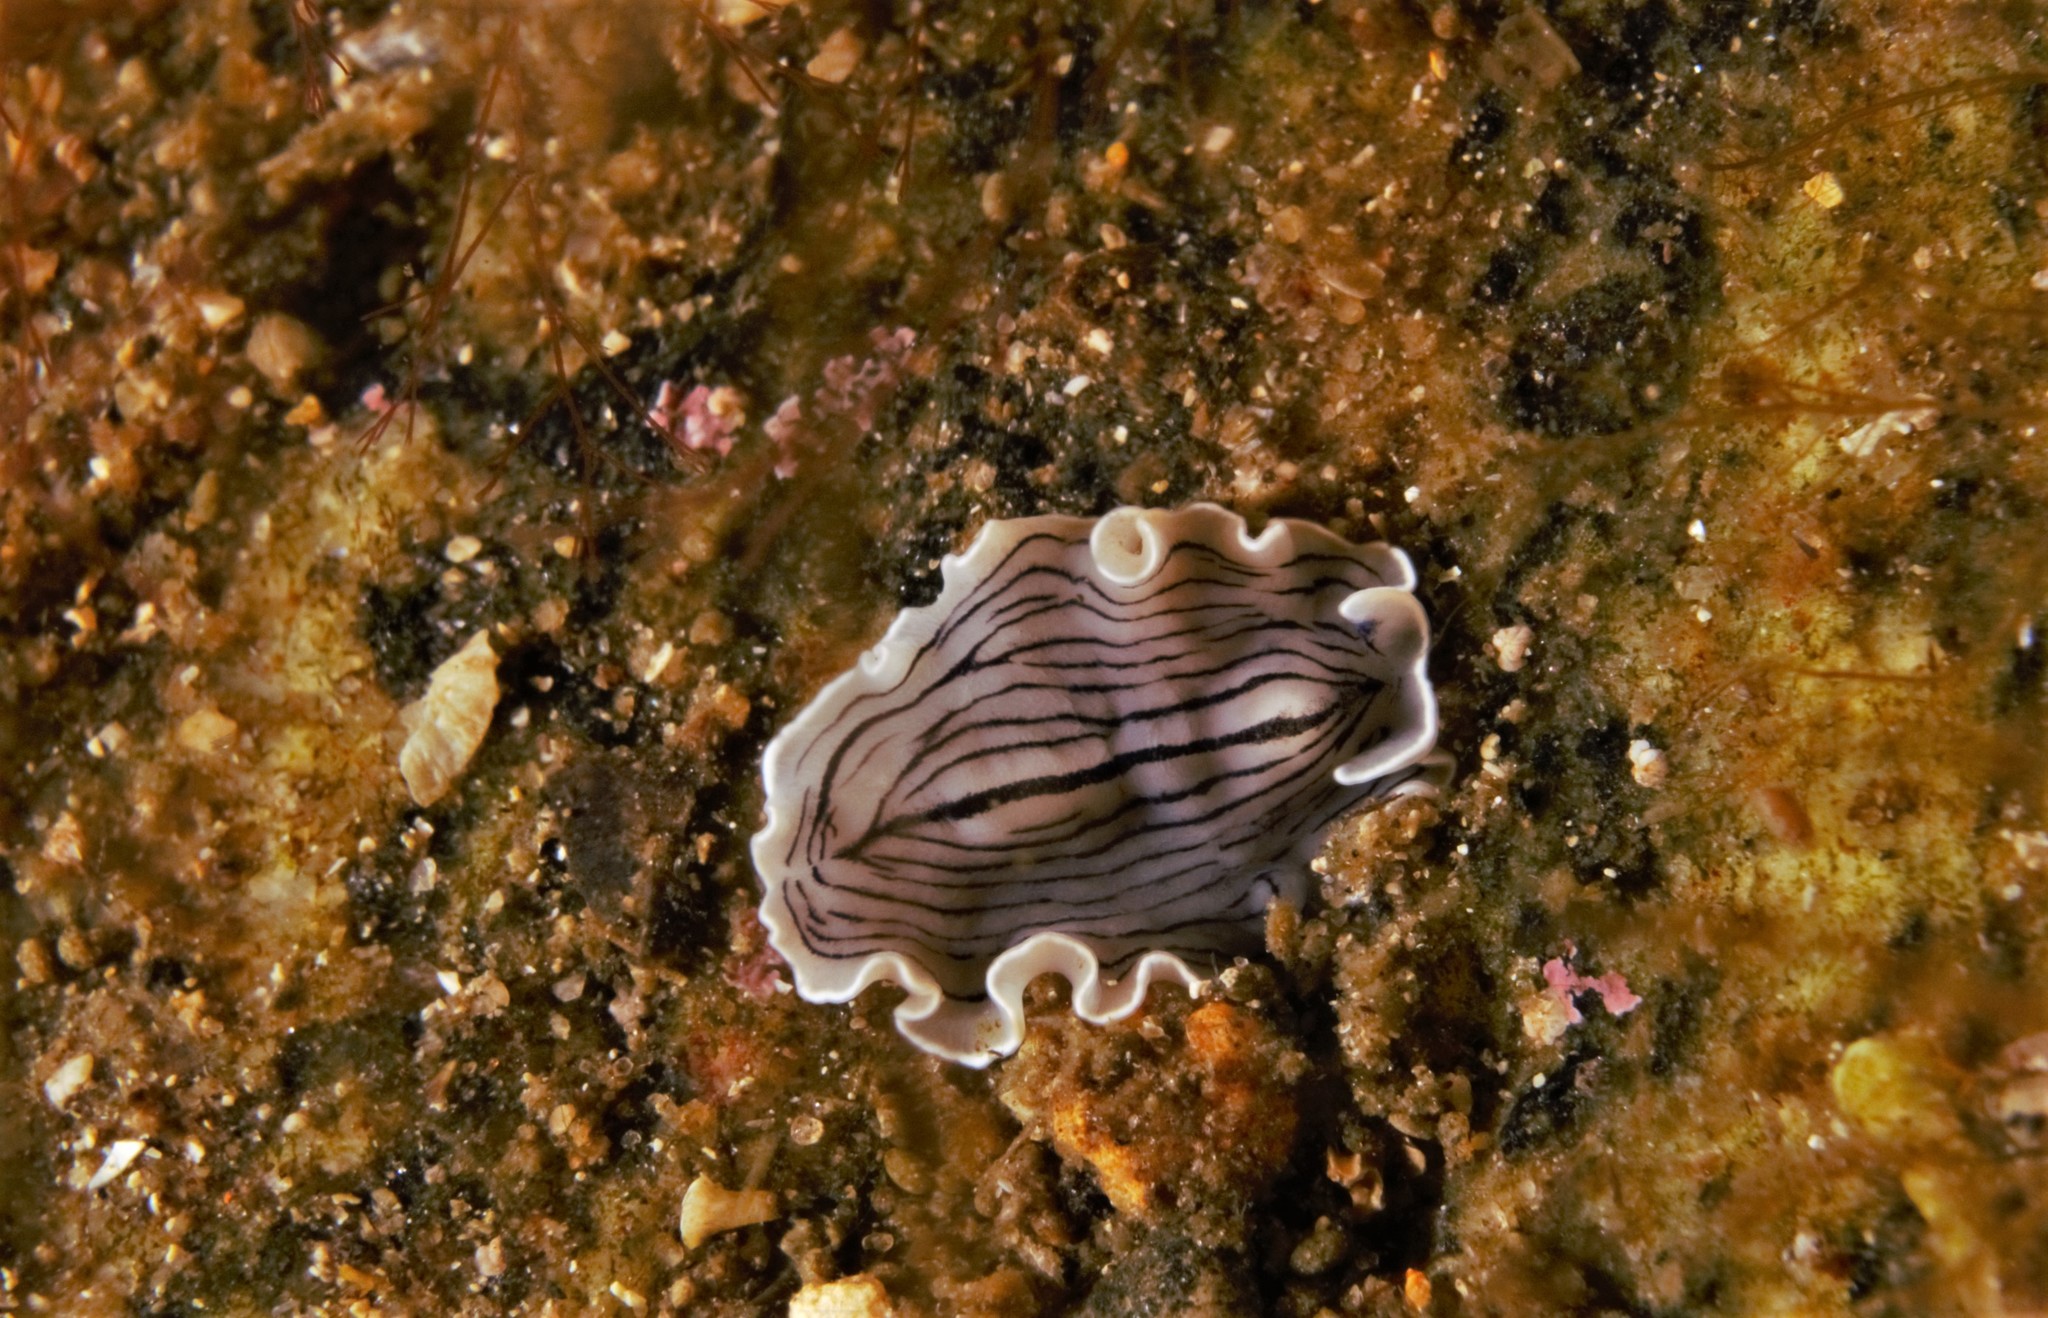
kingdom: Animalia
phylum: Platyhelminthes
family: Euryleptidae
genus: Prostheceraeus
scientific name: Prostheceraeus vittatus
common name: Candy striped flatworm
